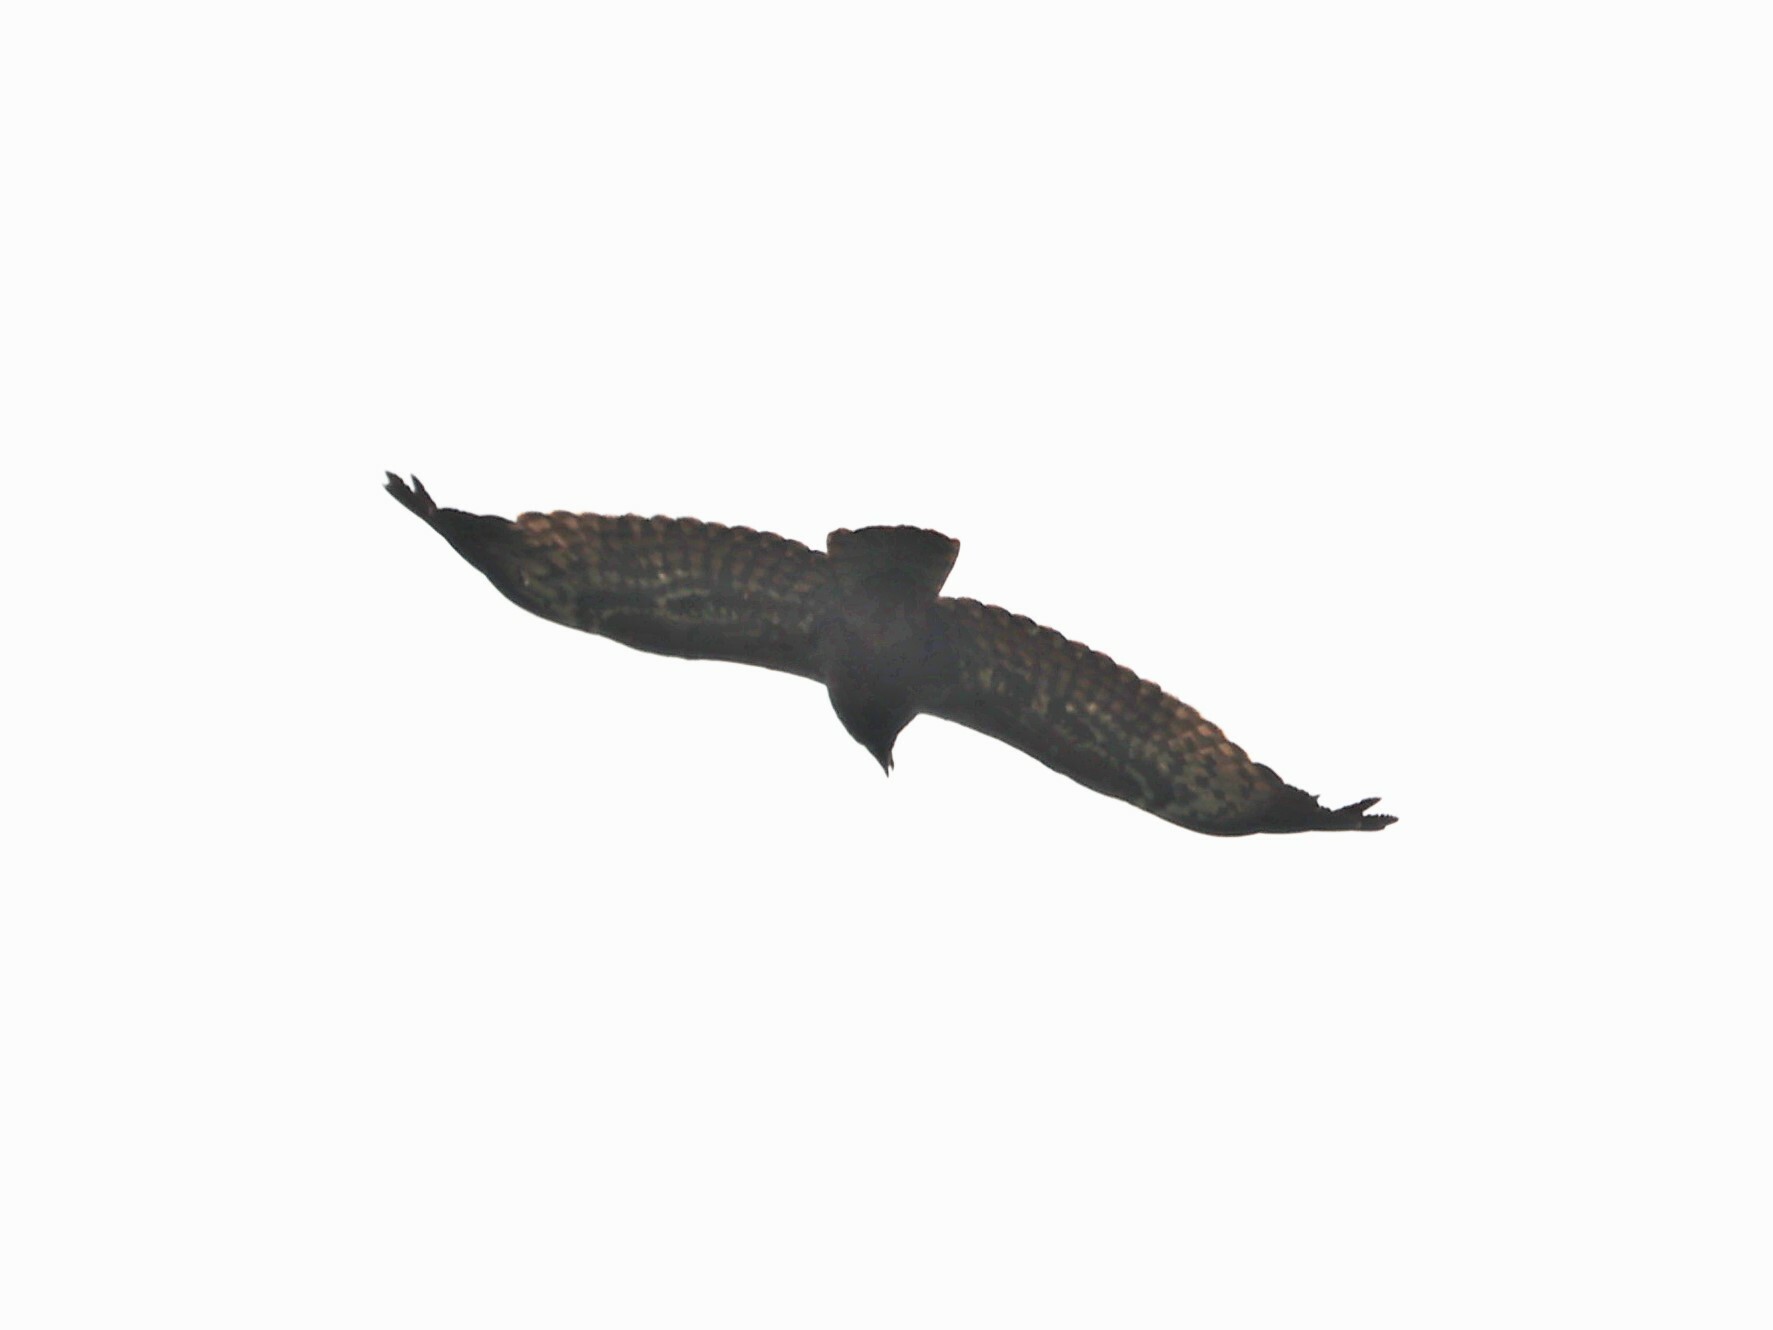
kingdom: Animalia
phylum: Chordata
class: Aves
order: Accipitriformes
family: Accipitridae
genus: Polyboroides
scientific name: Polyboroides typus
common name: African harrier-hawk
